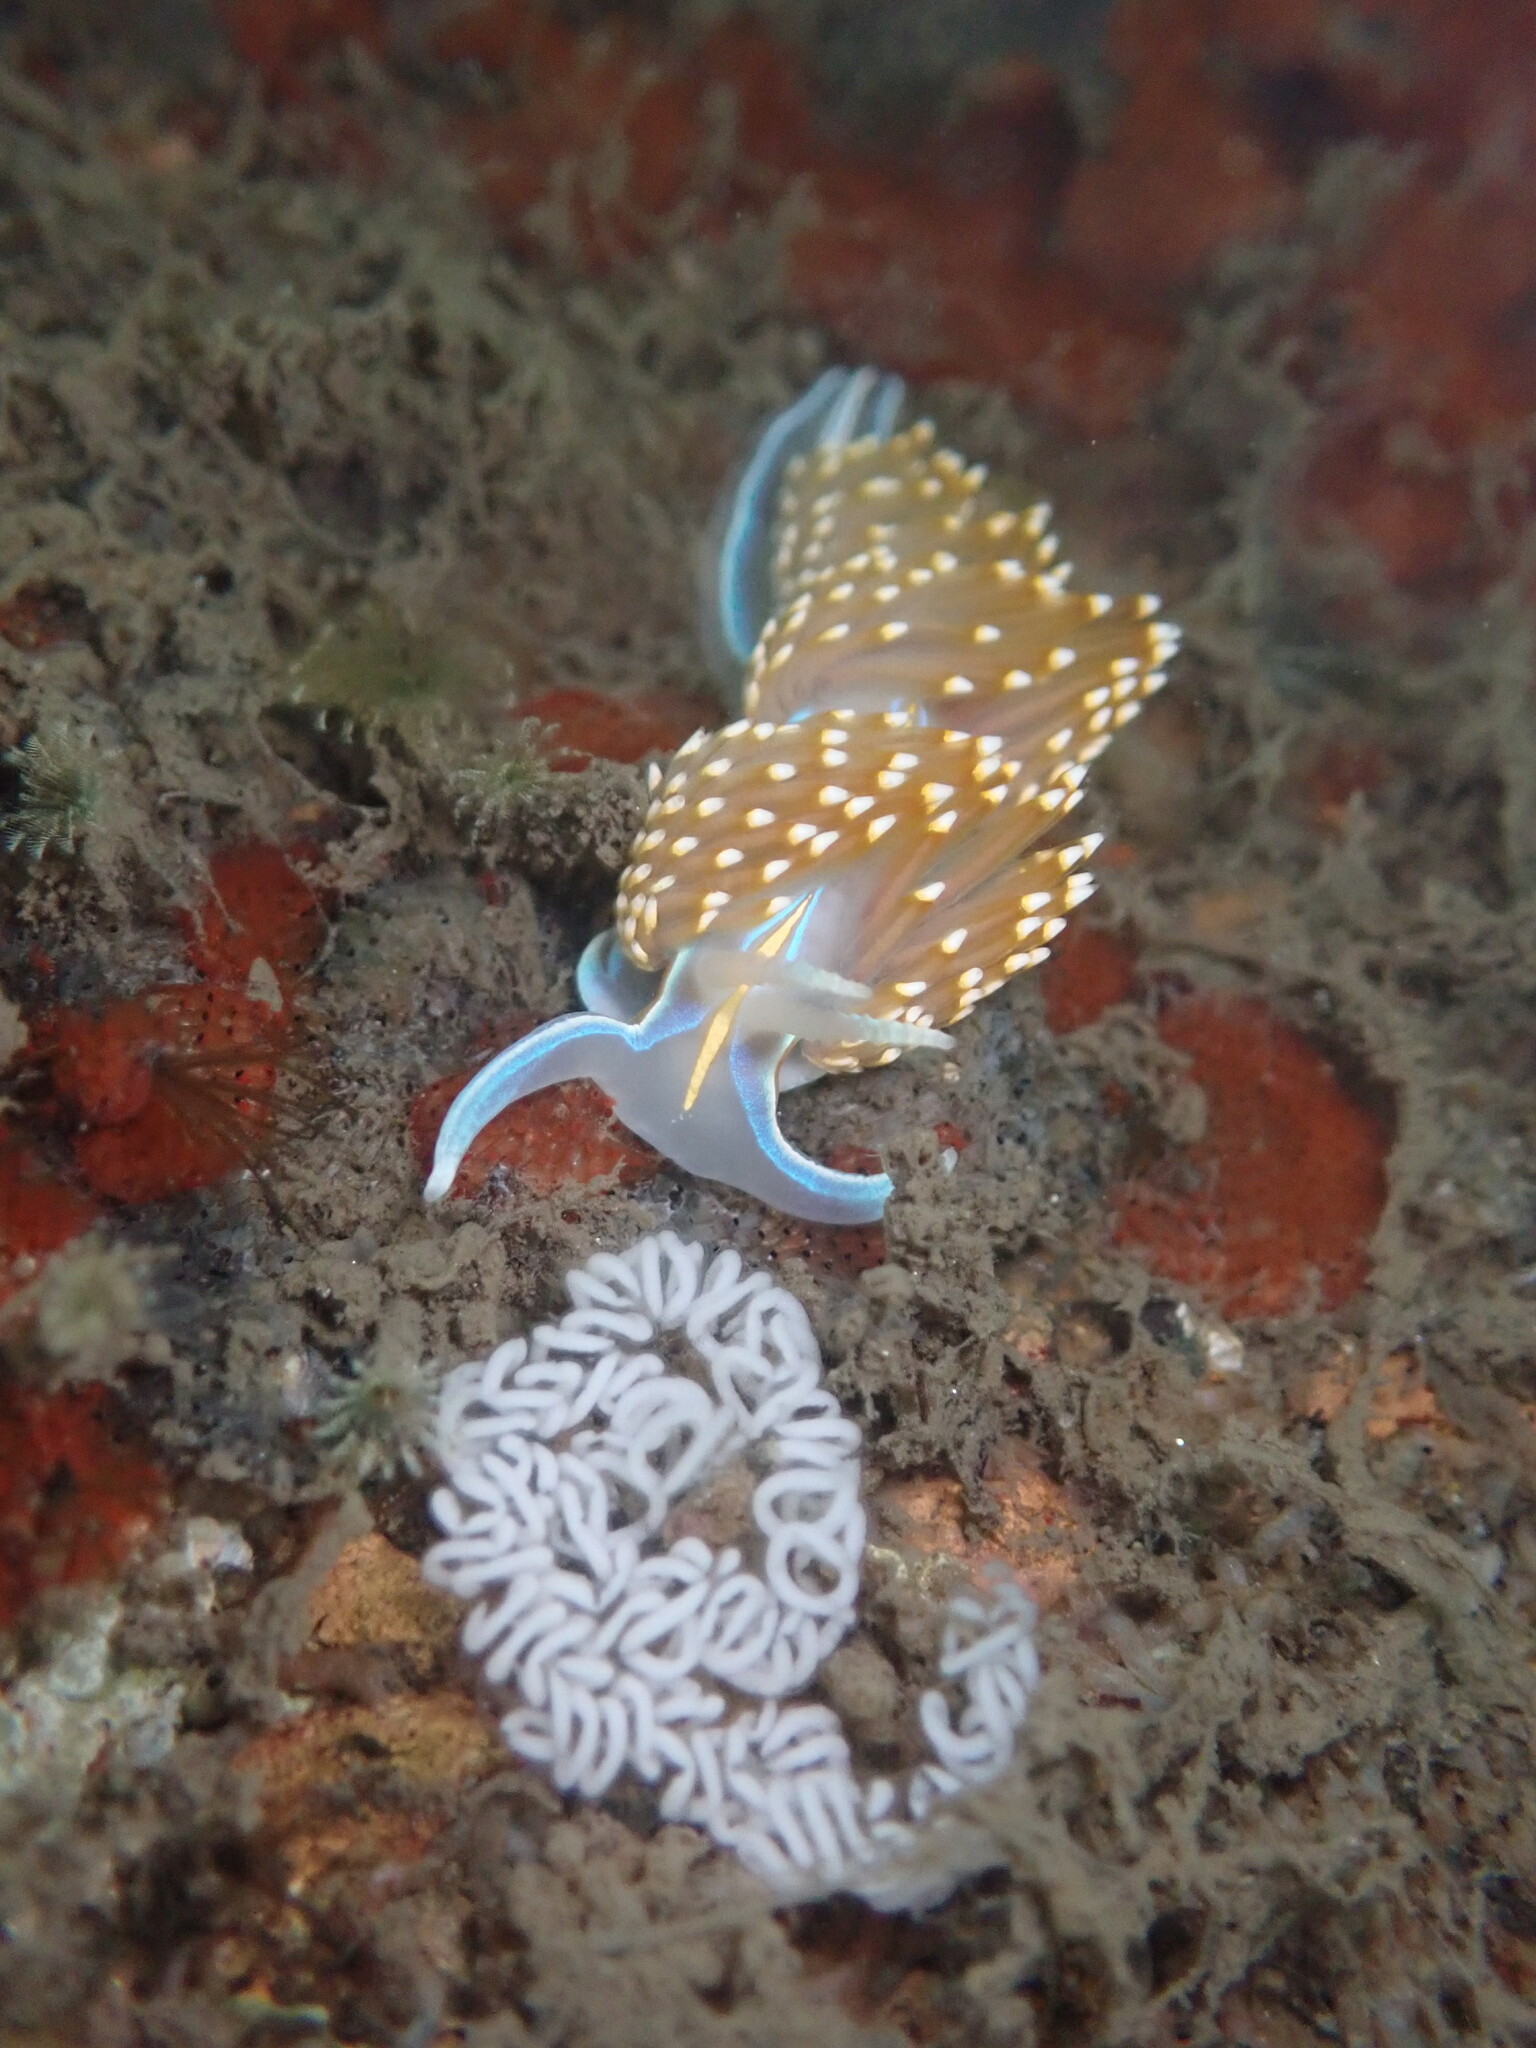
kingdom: Animalia
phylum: Mollusca
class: Gastropoda
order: Nudibranchia
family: Myrrhinidae
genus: Hermissenda
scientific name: Hermissenda opalescens
